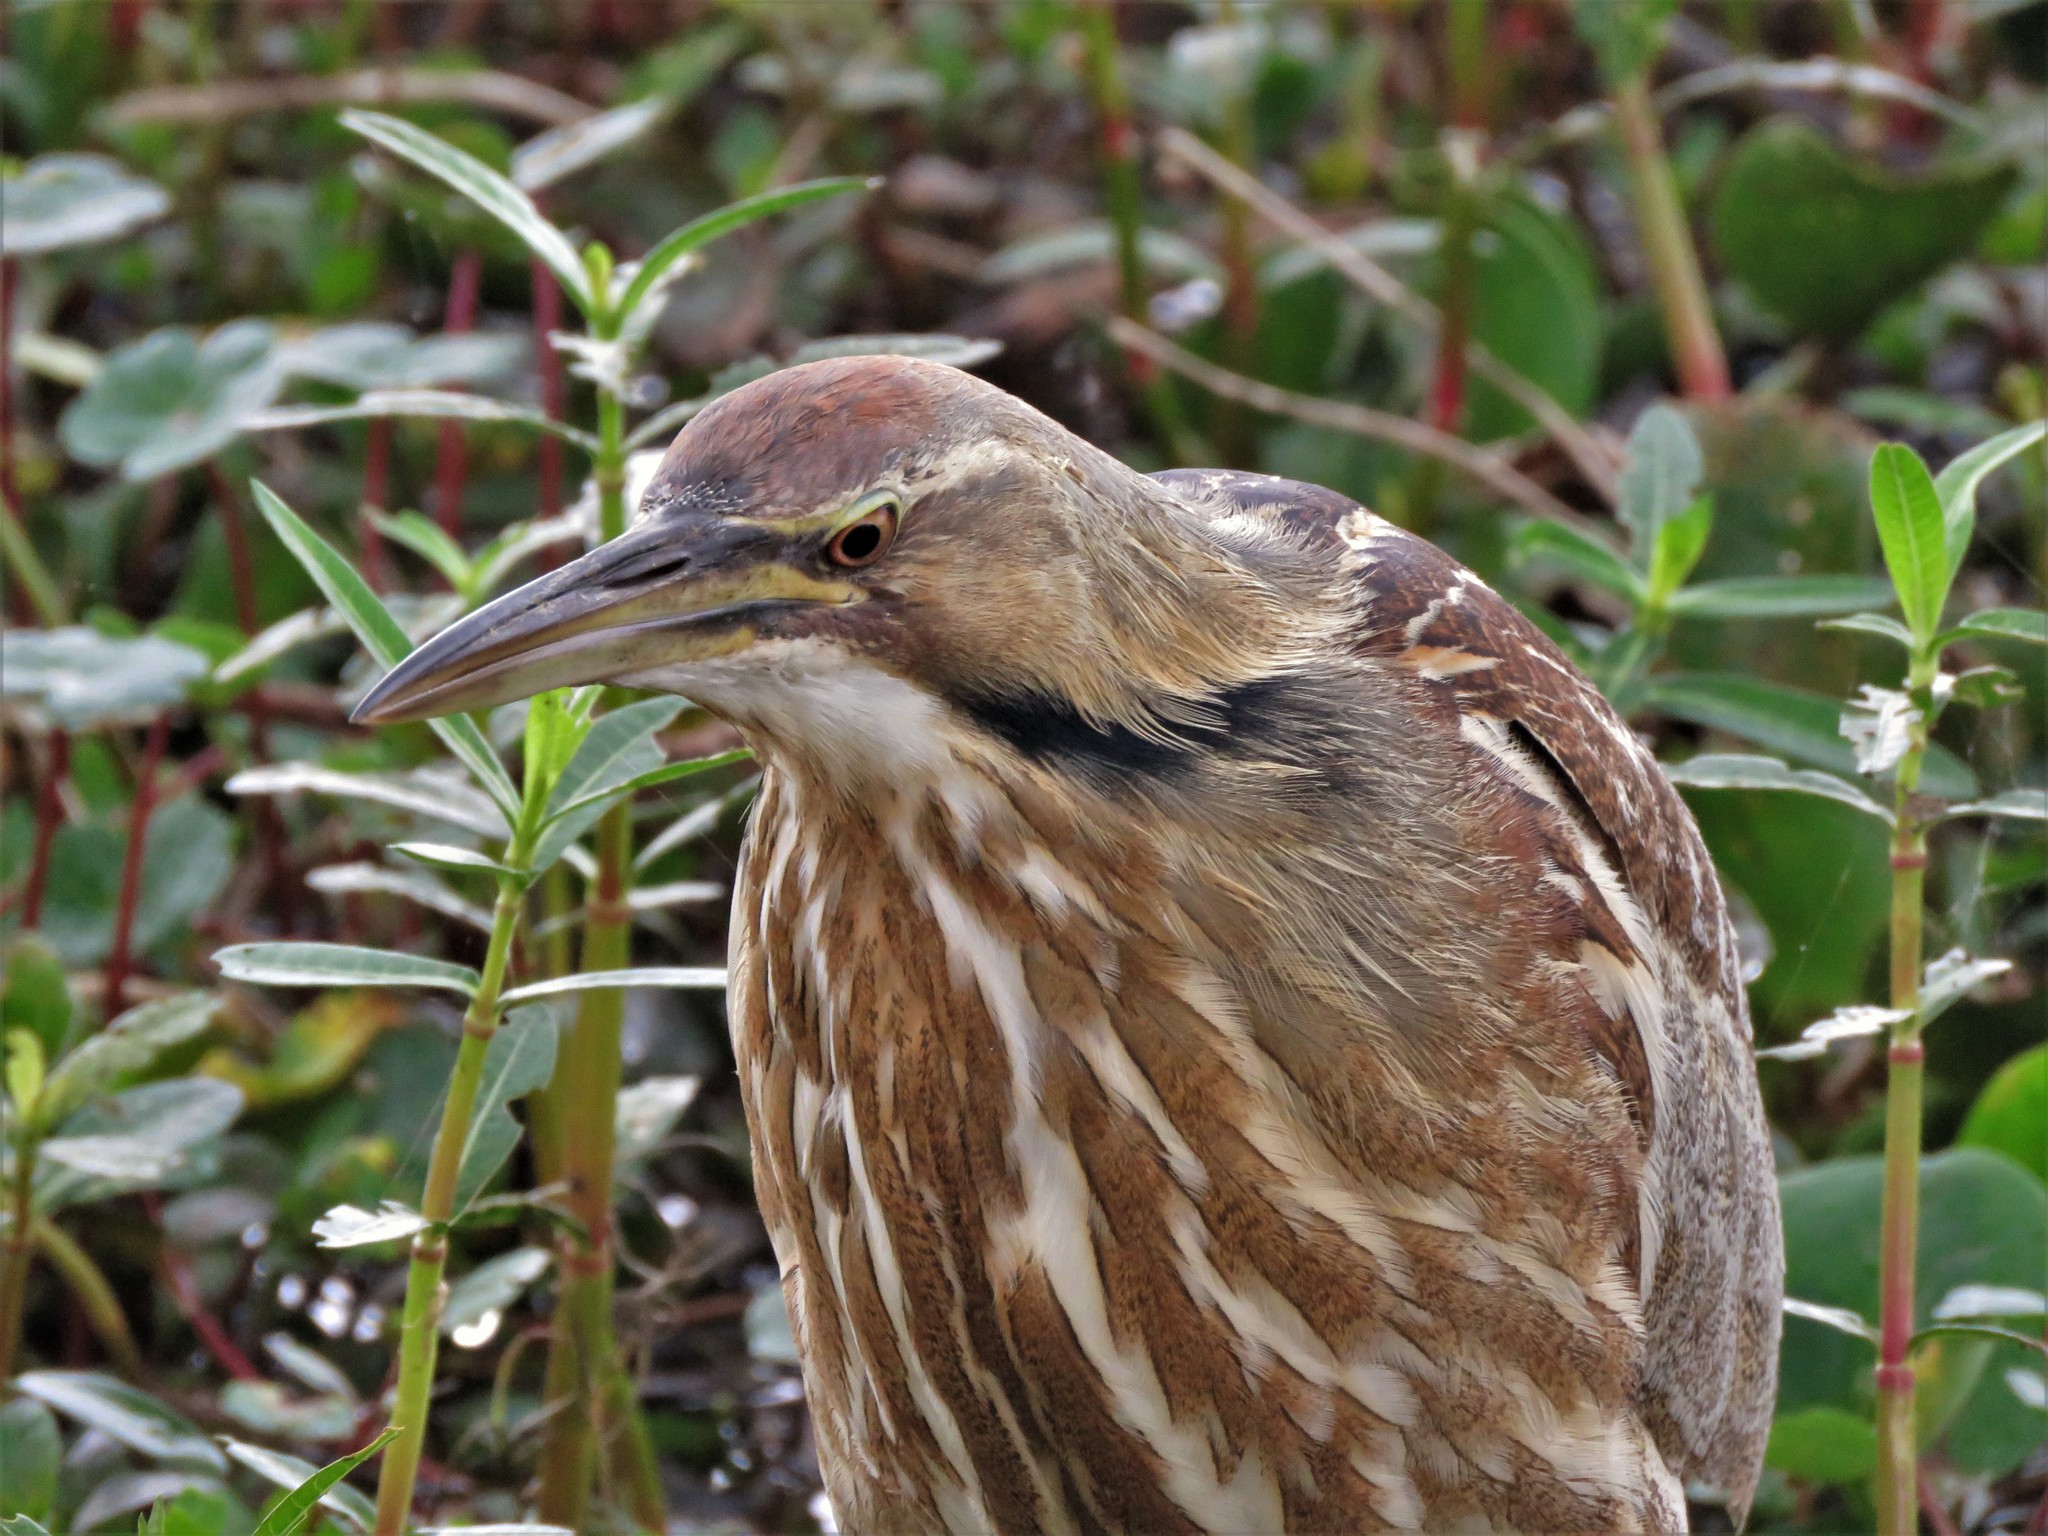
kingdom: Animalia
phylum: Chordata
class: Aves
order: Pelecaniformes
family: Ardeidae
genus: Botaurus
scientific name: Botaurus lentiginosus
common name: American bittern
